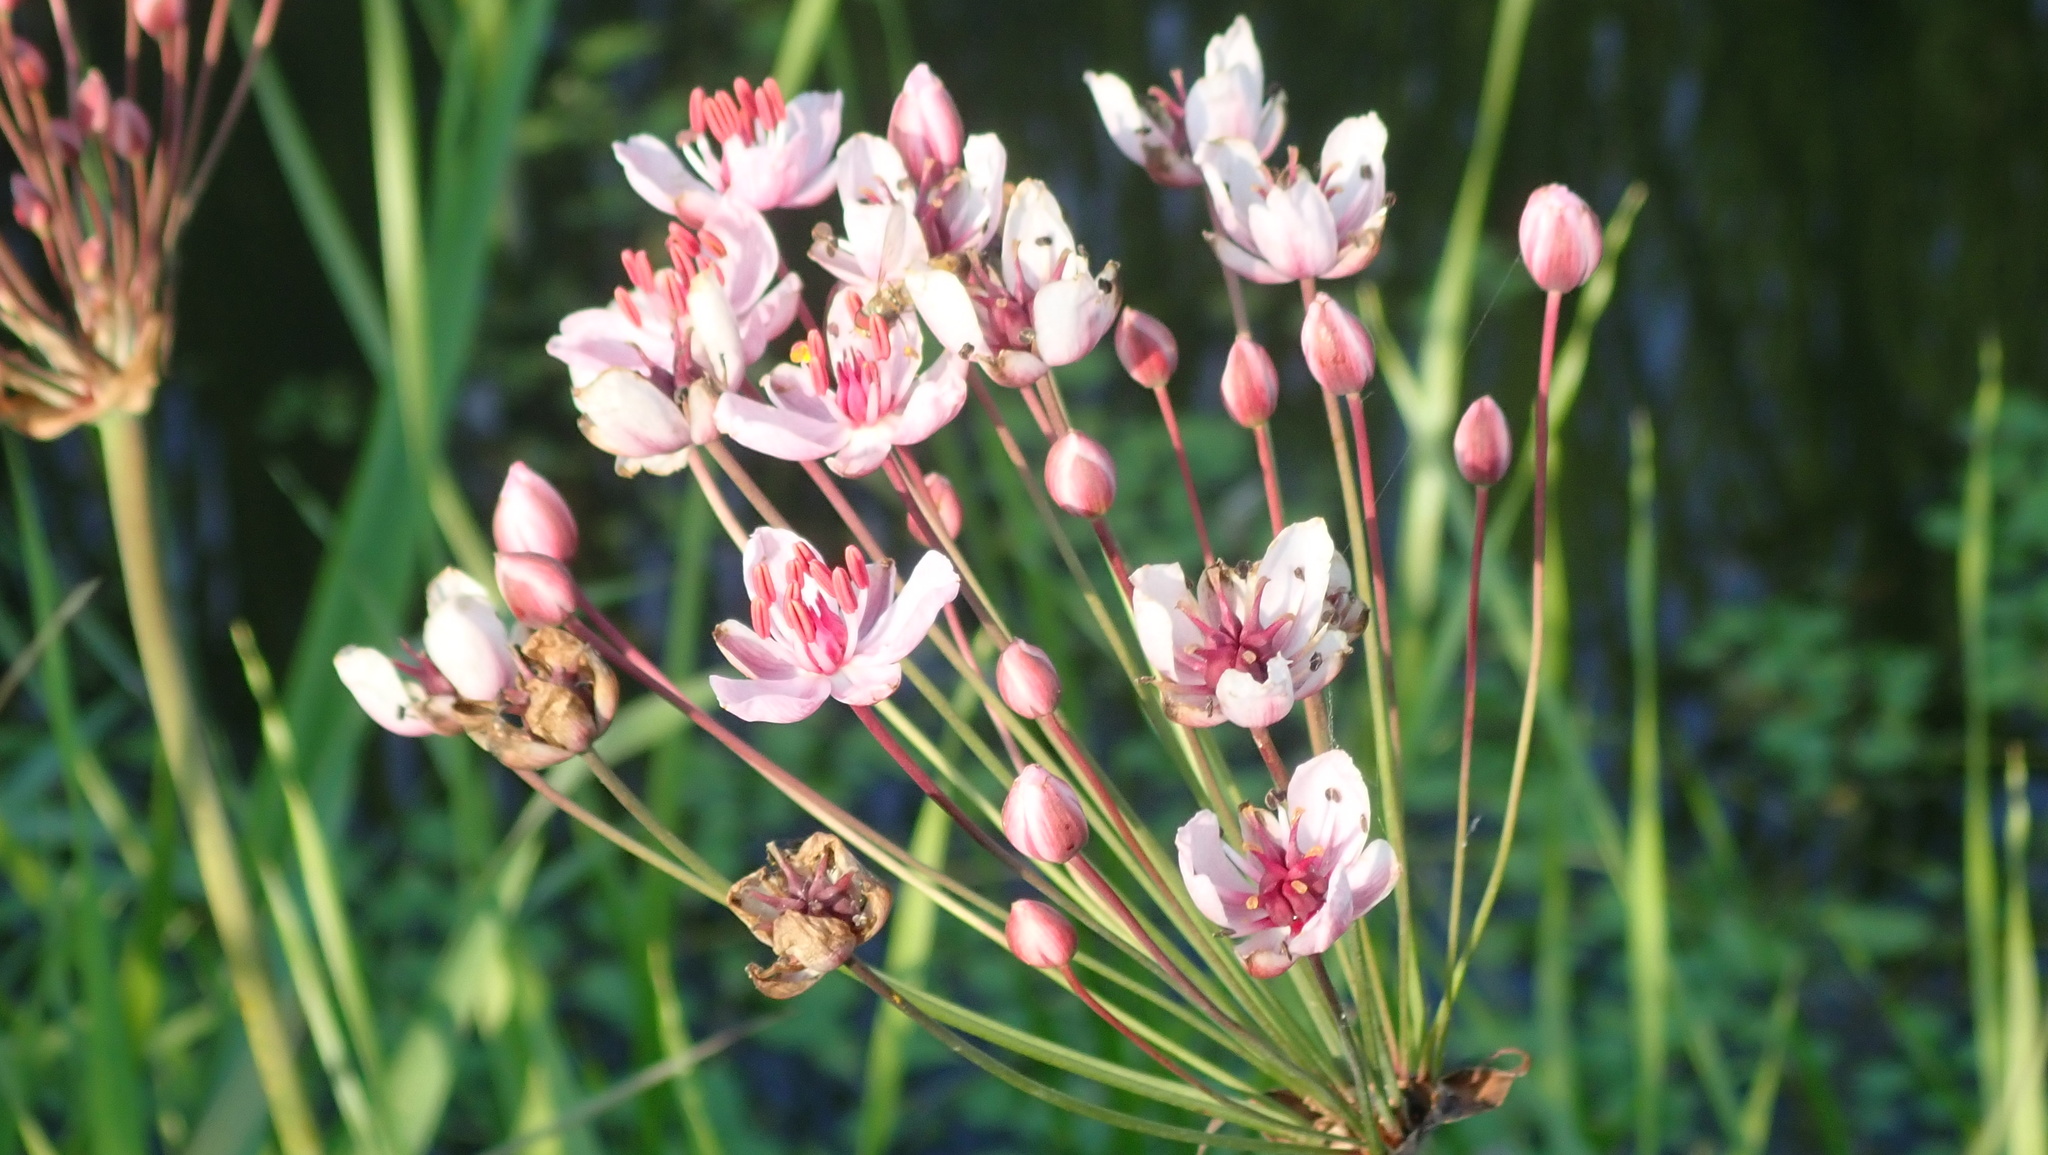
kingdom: Plantae
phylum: Tracheophyta
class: Liliopsida
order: Alismatales
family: Butomaceae
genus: Butomus
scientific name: Butomus umbellatus
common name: Flowering-rush
